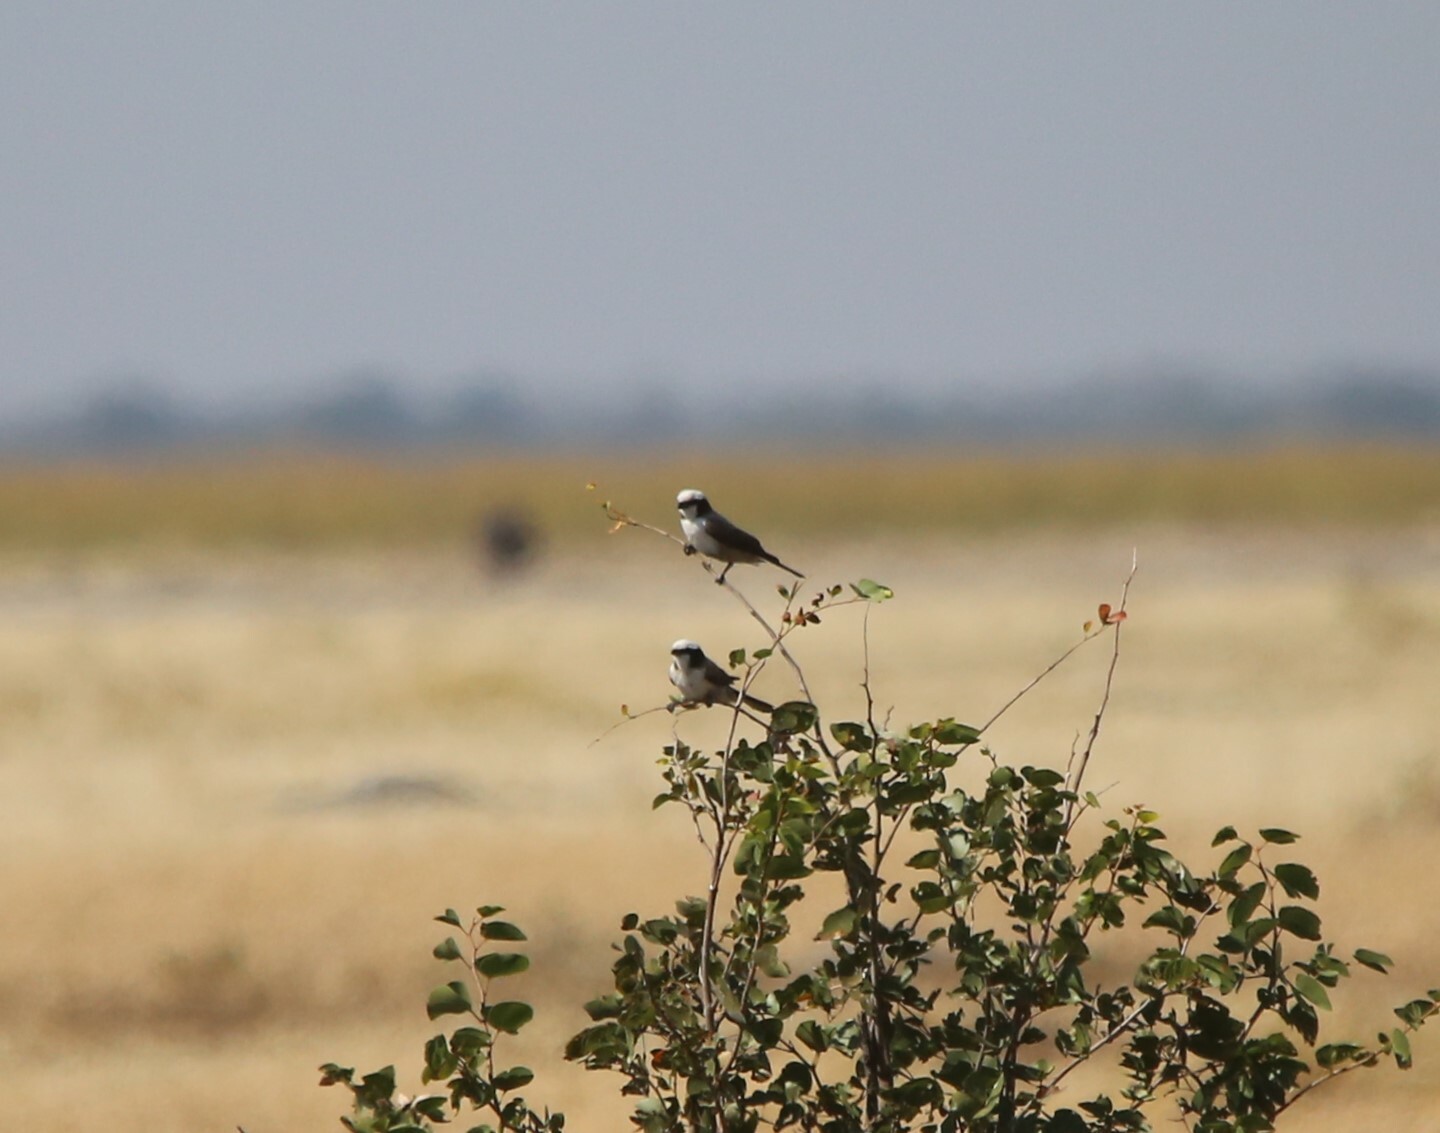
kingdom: Animalia
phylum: Chordata
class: Aves
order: Passeriformes
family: Laniidae
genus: Eurocephalus
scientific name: Eurocephalus anguitimens
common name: Southern white-crowned shrike
